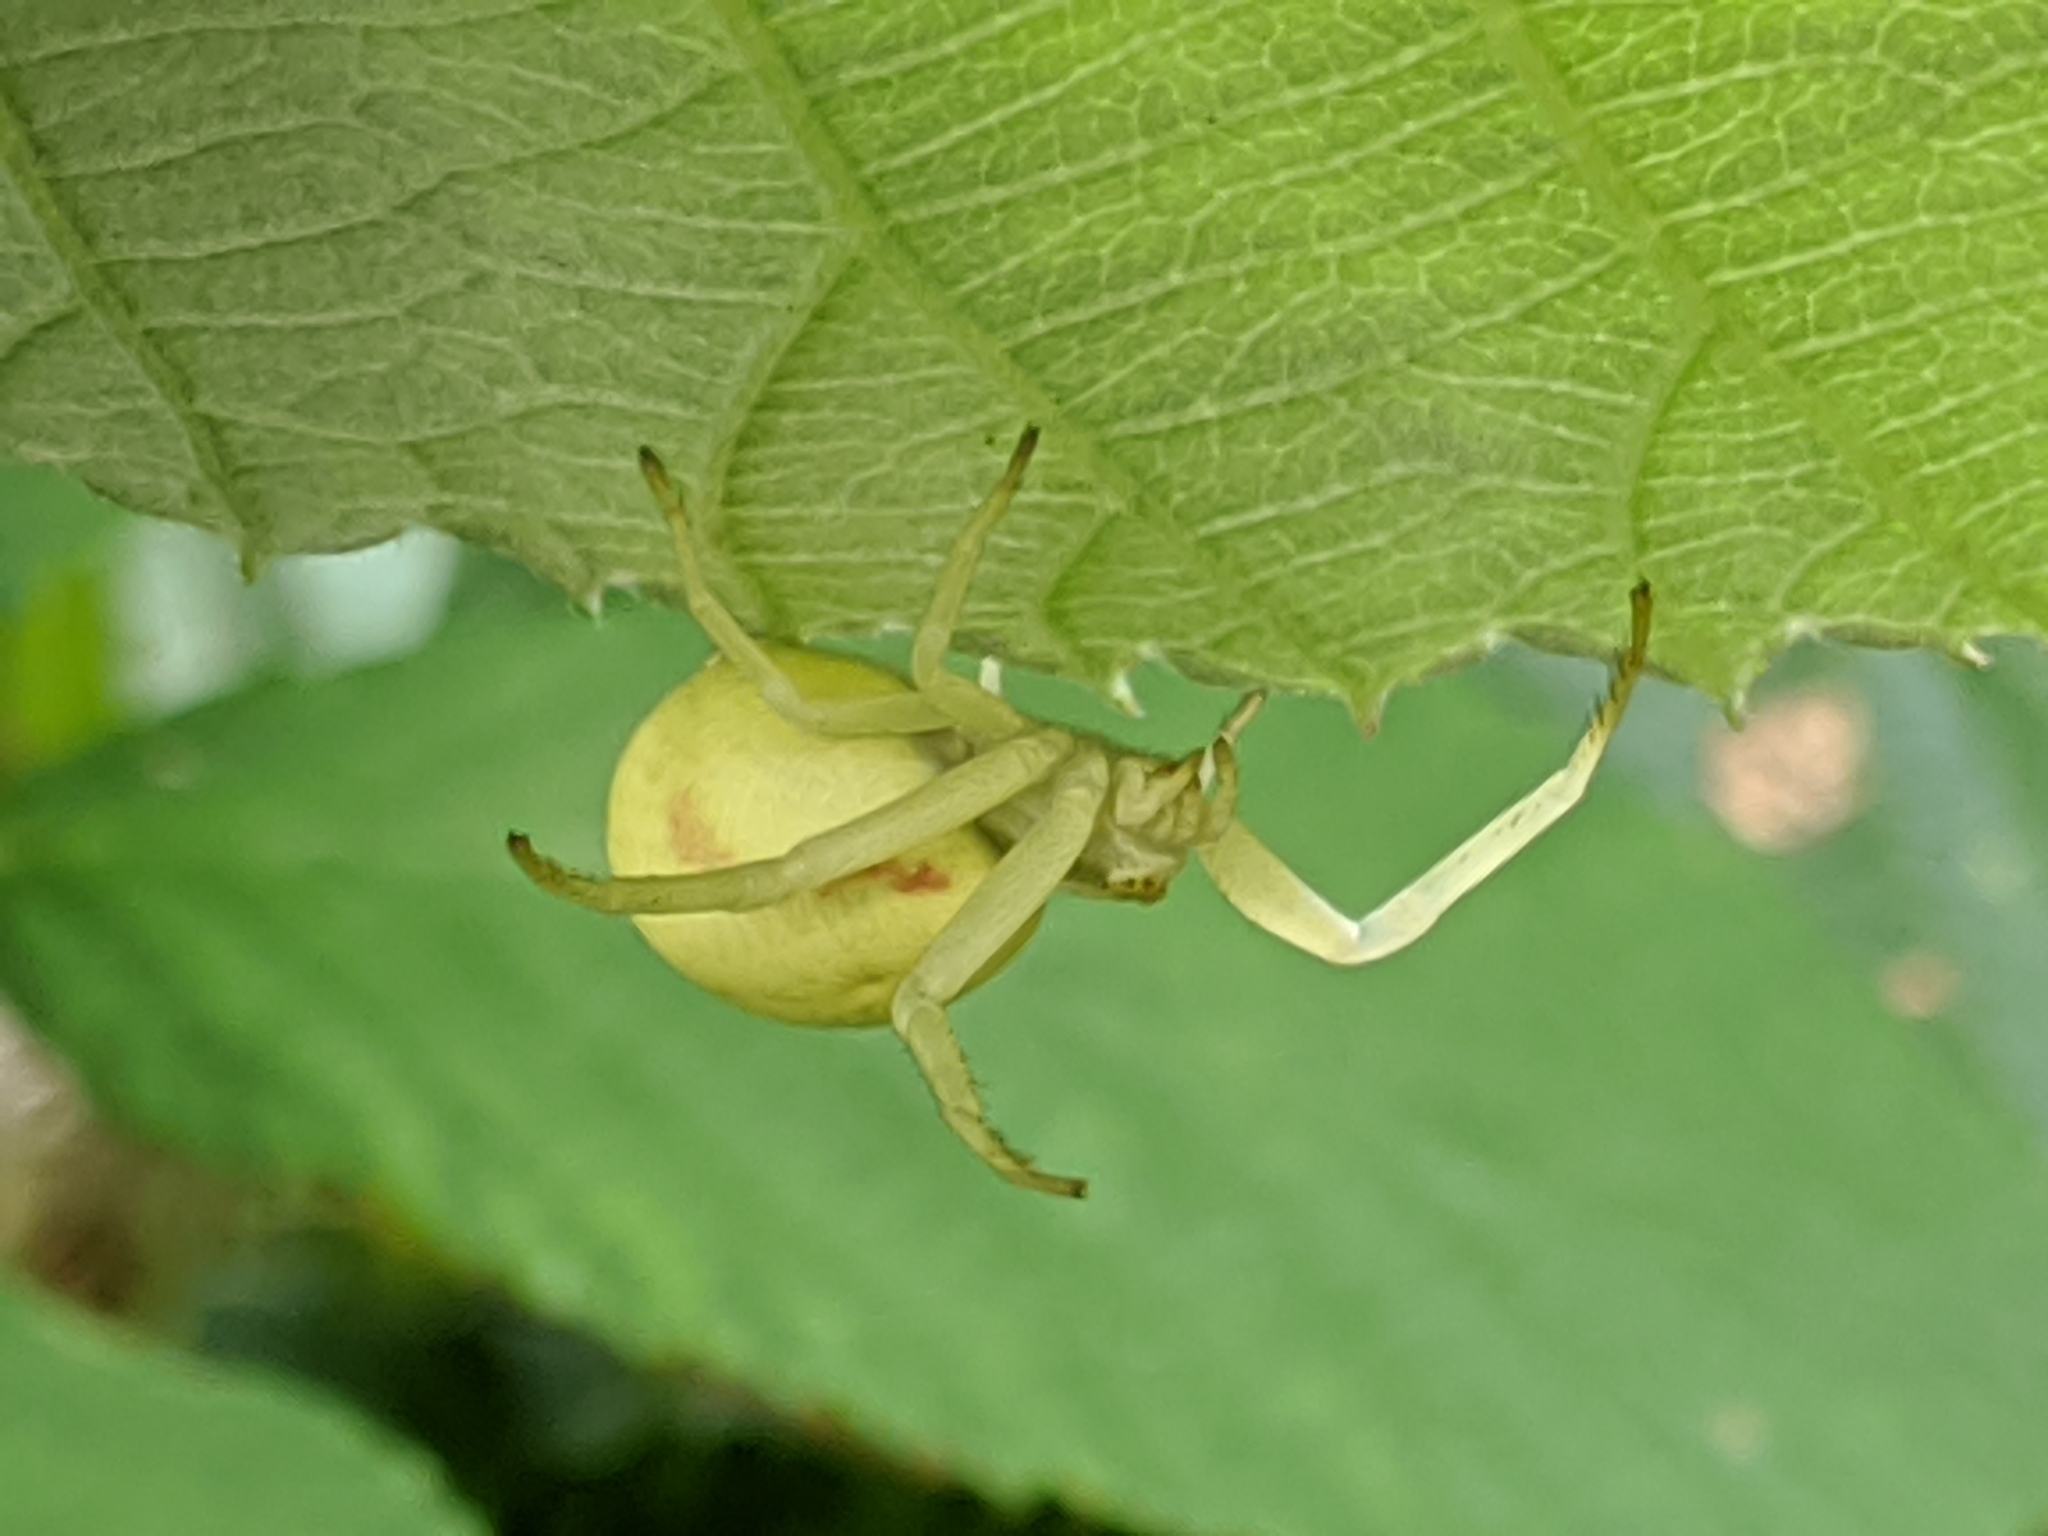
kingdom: Animalia
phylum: Arthropoda
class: Arachnida
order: Araneae
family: Thomisidae
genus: Misumena
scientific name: Misumena vatia
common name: Goldenrod crab spider
